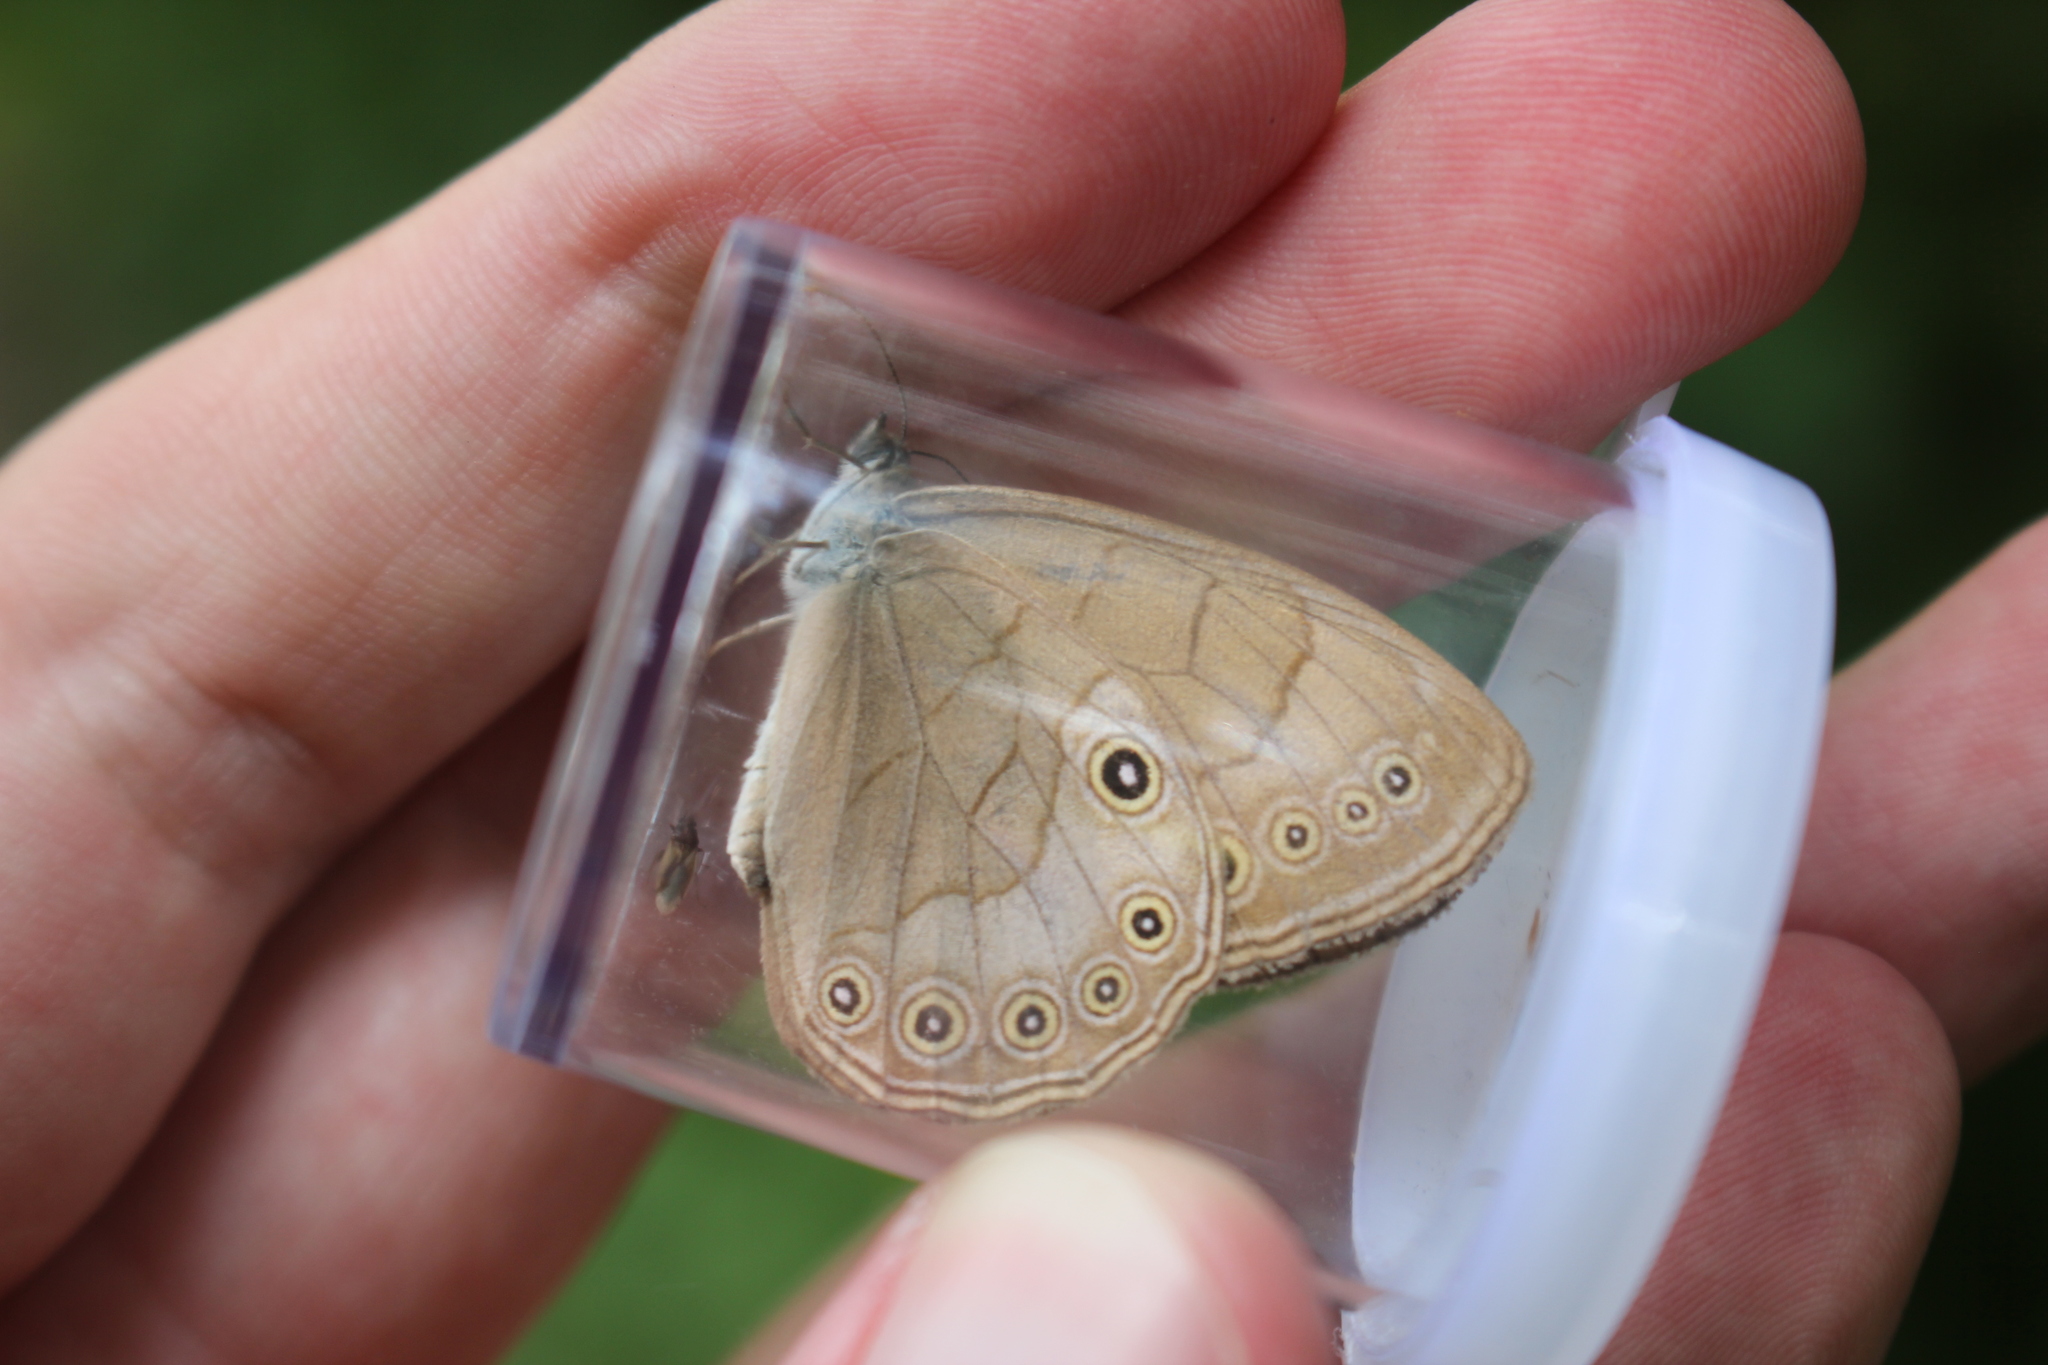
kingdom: Animalia
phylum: Arthropoda
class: Insecta
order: Lepidoptera
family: Nymphalidae
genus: Lethe
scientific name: Lethe eurydice
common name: Eyed brown
